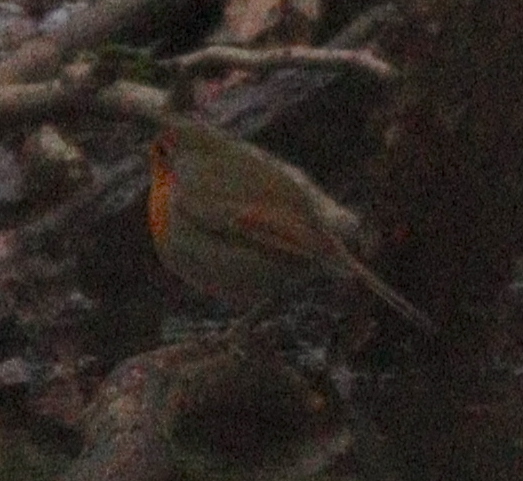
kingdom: Animalia
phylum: Chordata
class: Aves
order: Passeriformes
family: Muscicapidae
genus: Erithacus
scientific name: Erithacus rubecula
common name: European robin
